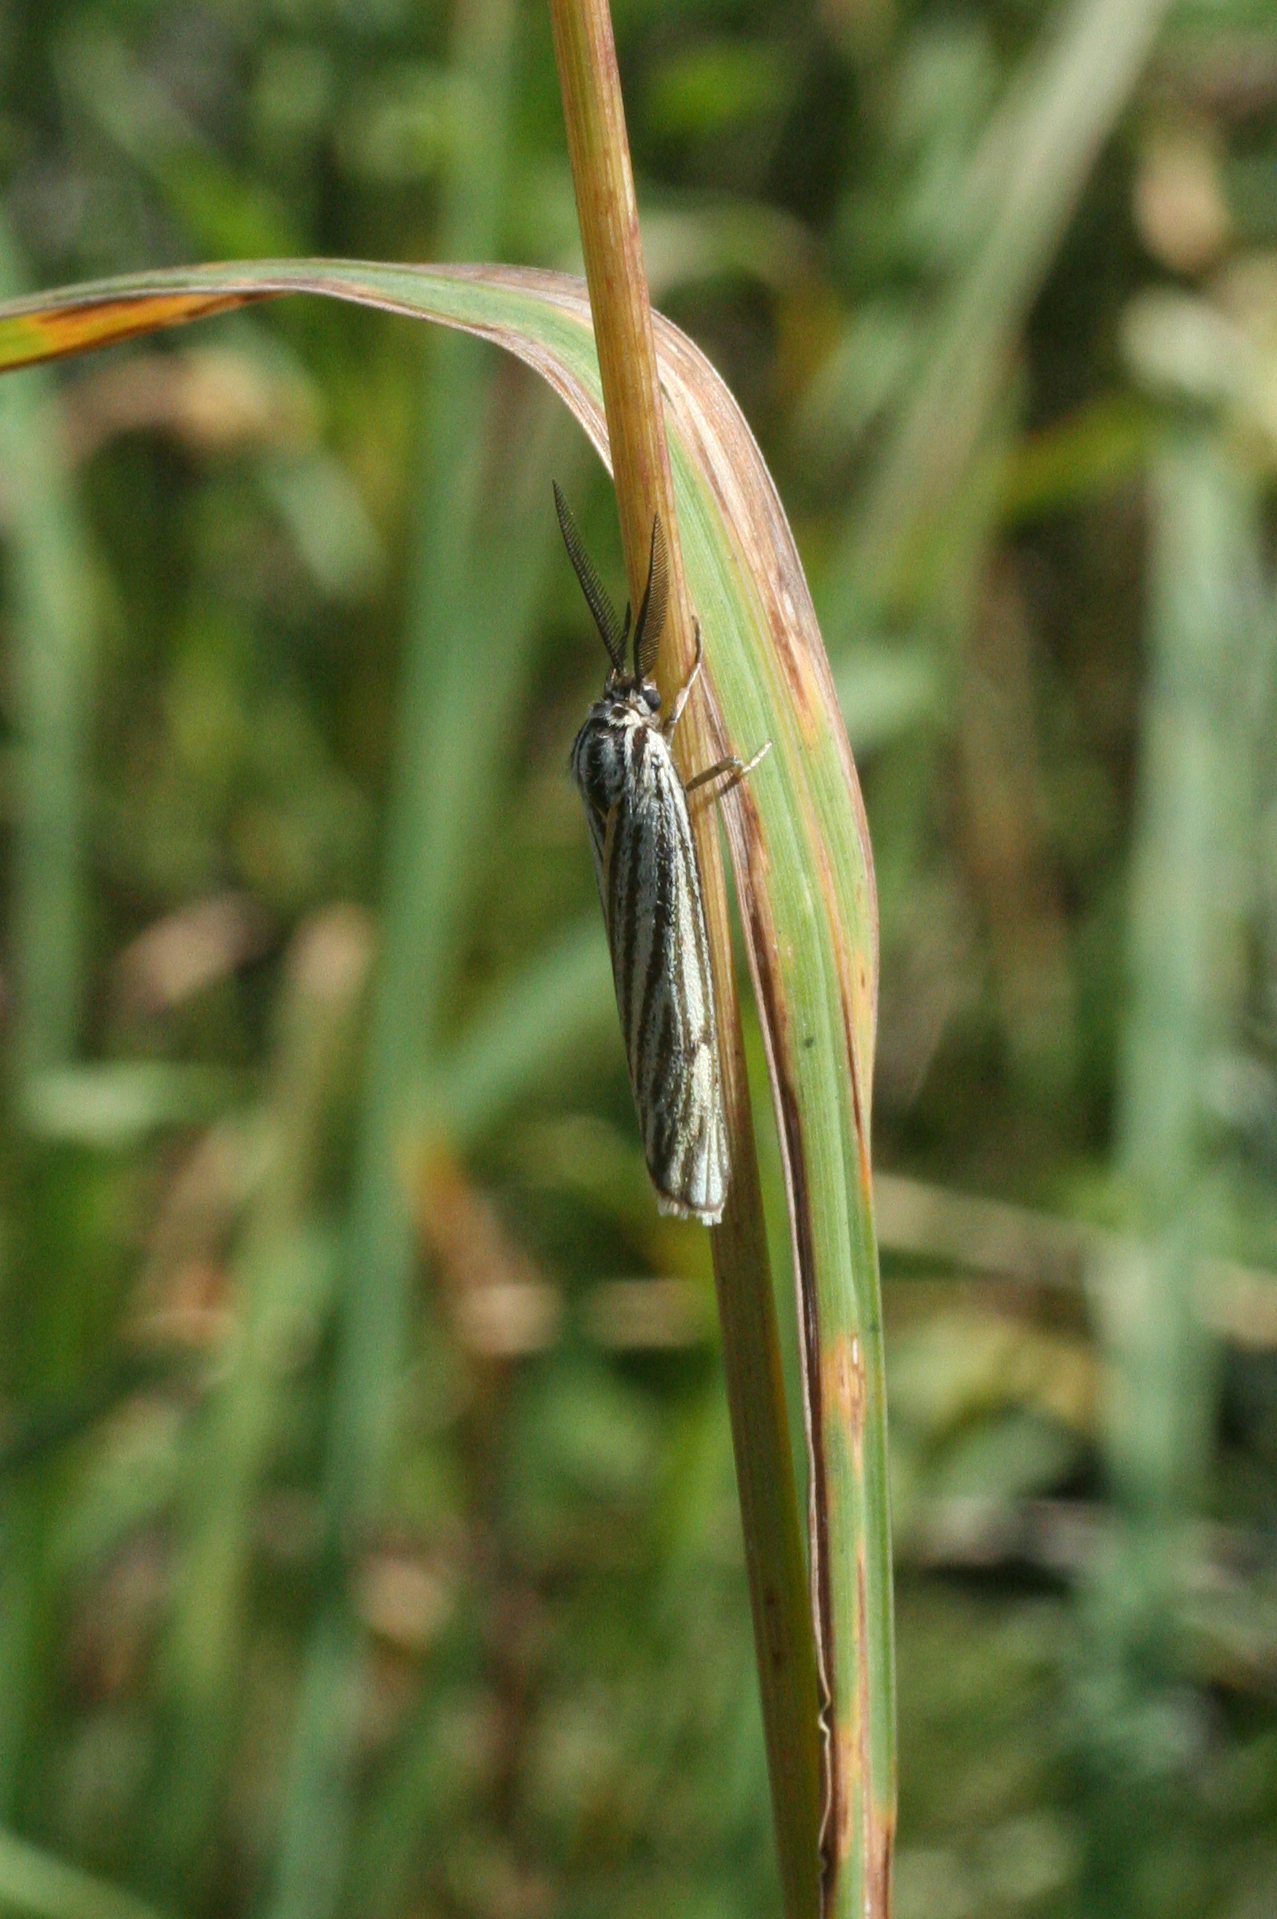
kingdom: Animalia
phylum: Arthropoda
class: Insecta
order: Lepidoptera
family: Erebidae
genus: Coscinia
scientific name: Coscinia Spiris striata
